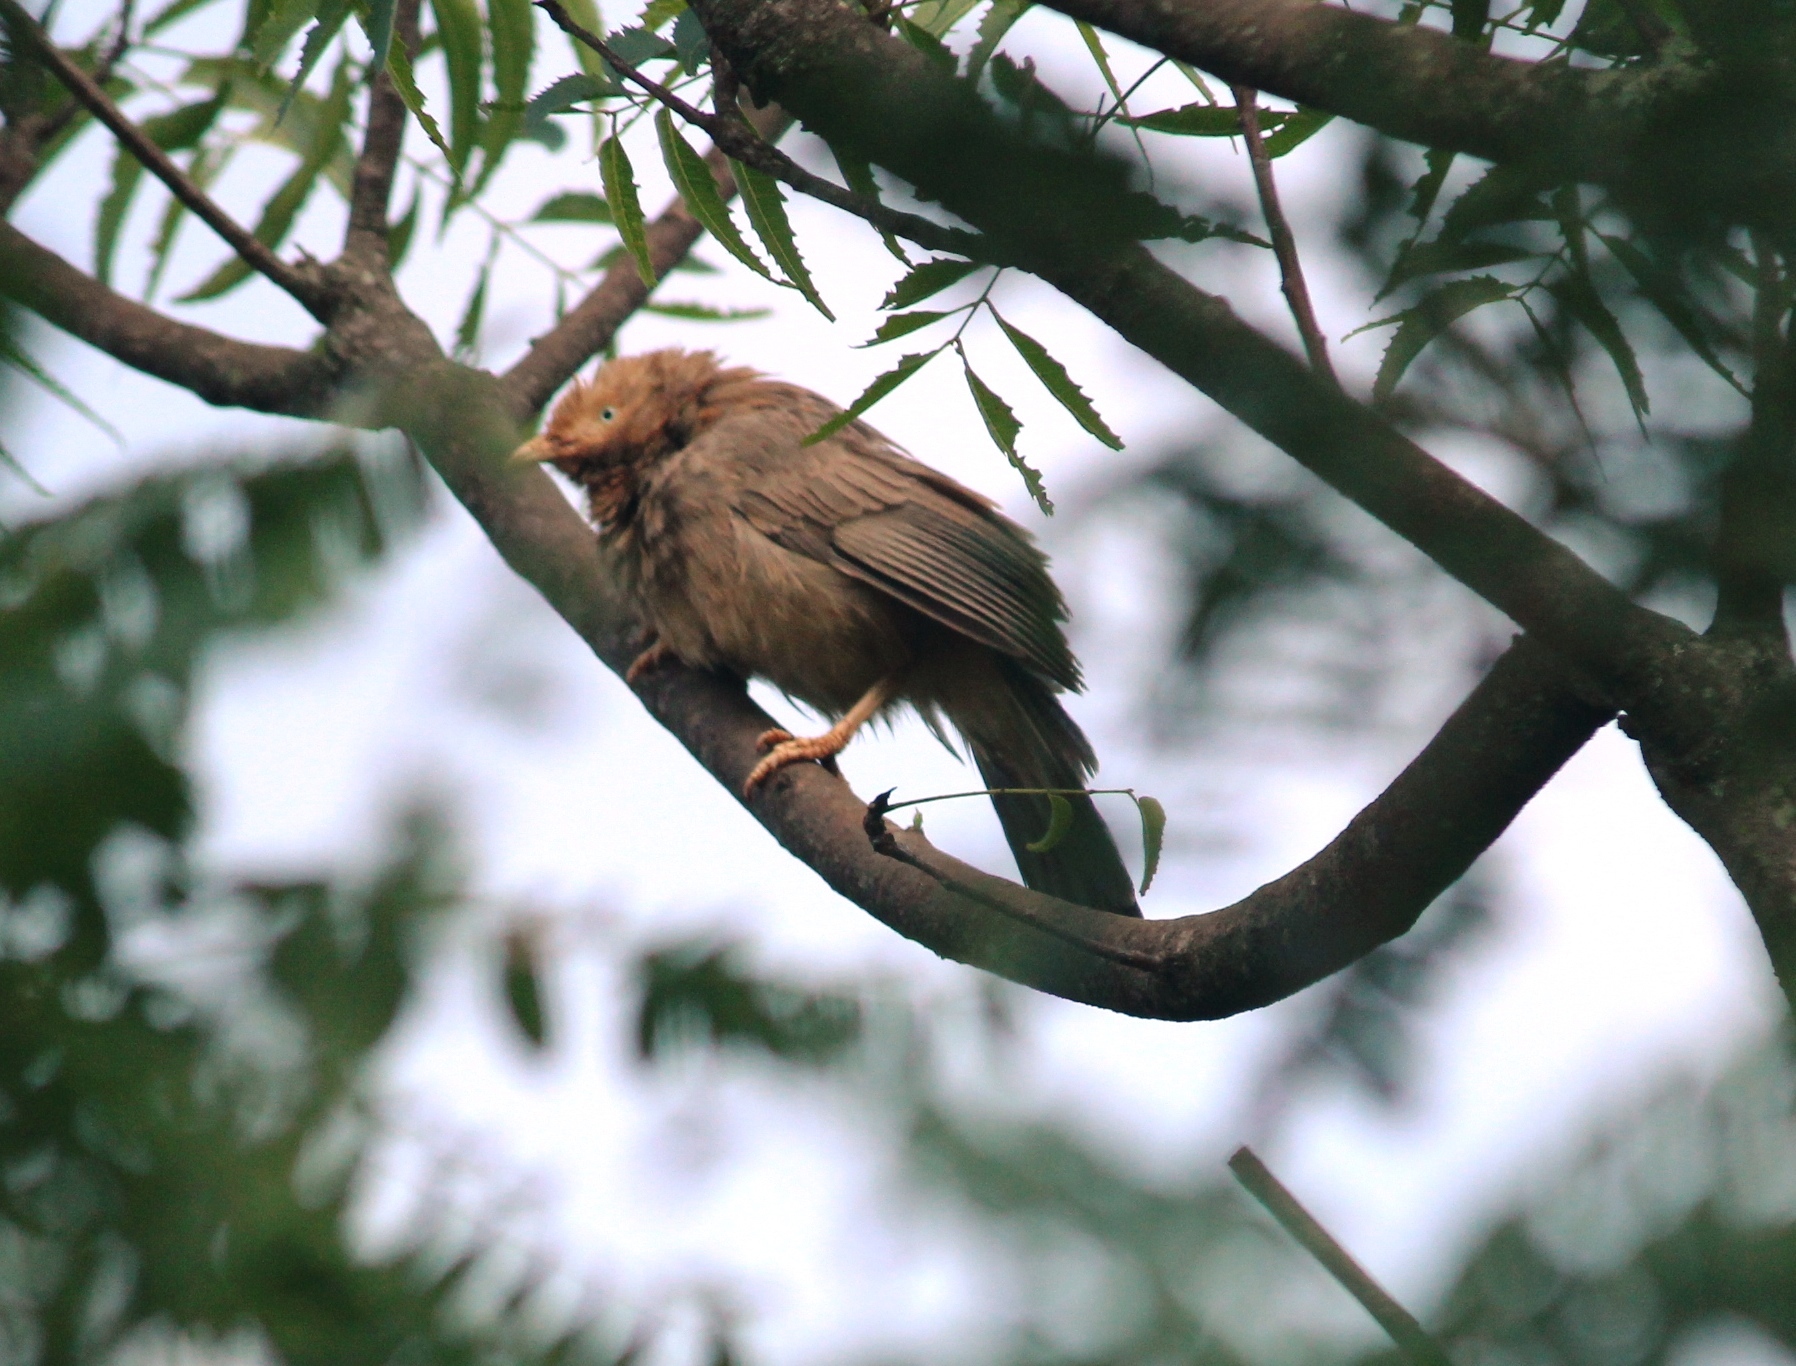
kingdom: Animalia
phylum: Chordata
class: Aves
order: Passeriformes
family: Leiothrichidae
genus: Turdoides
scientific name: Turdoides affinis
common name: Yellow-billed babbler
